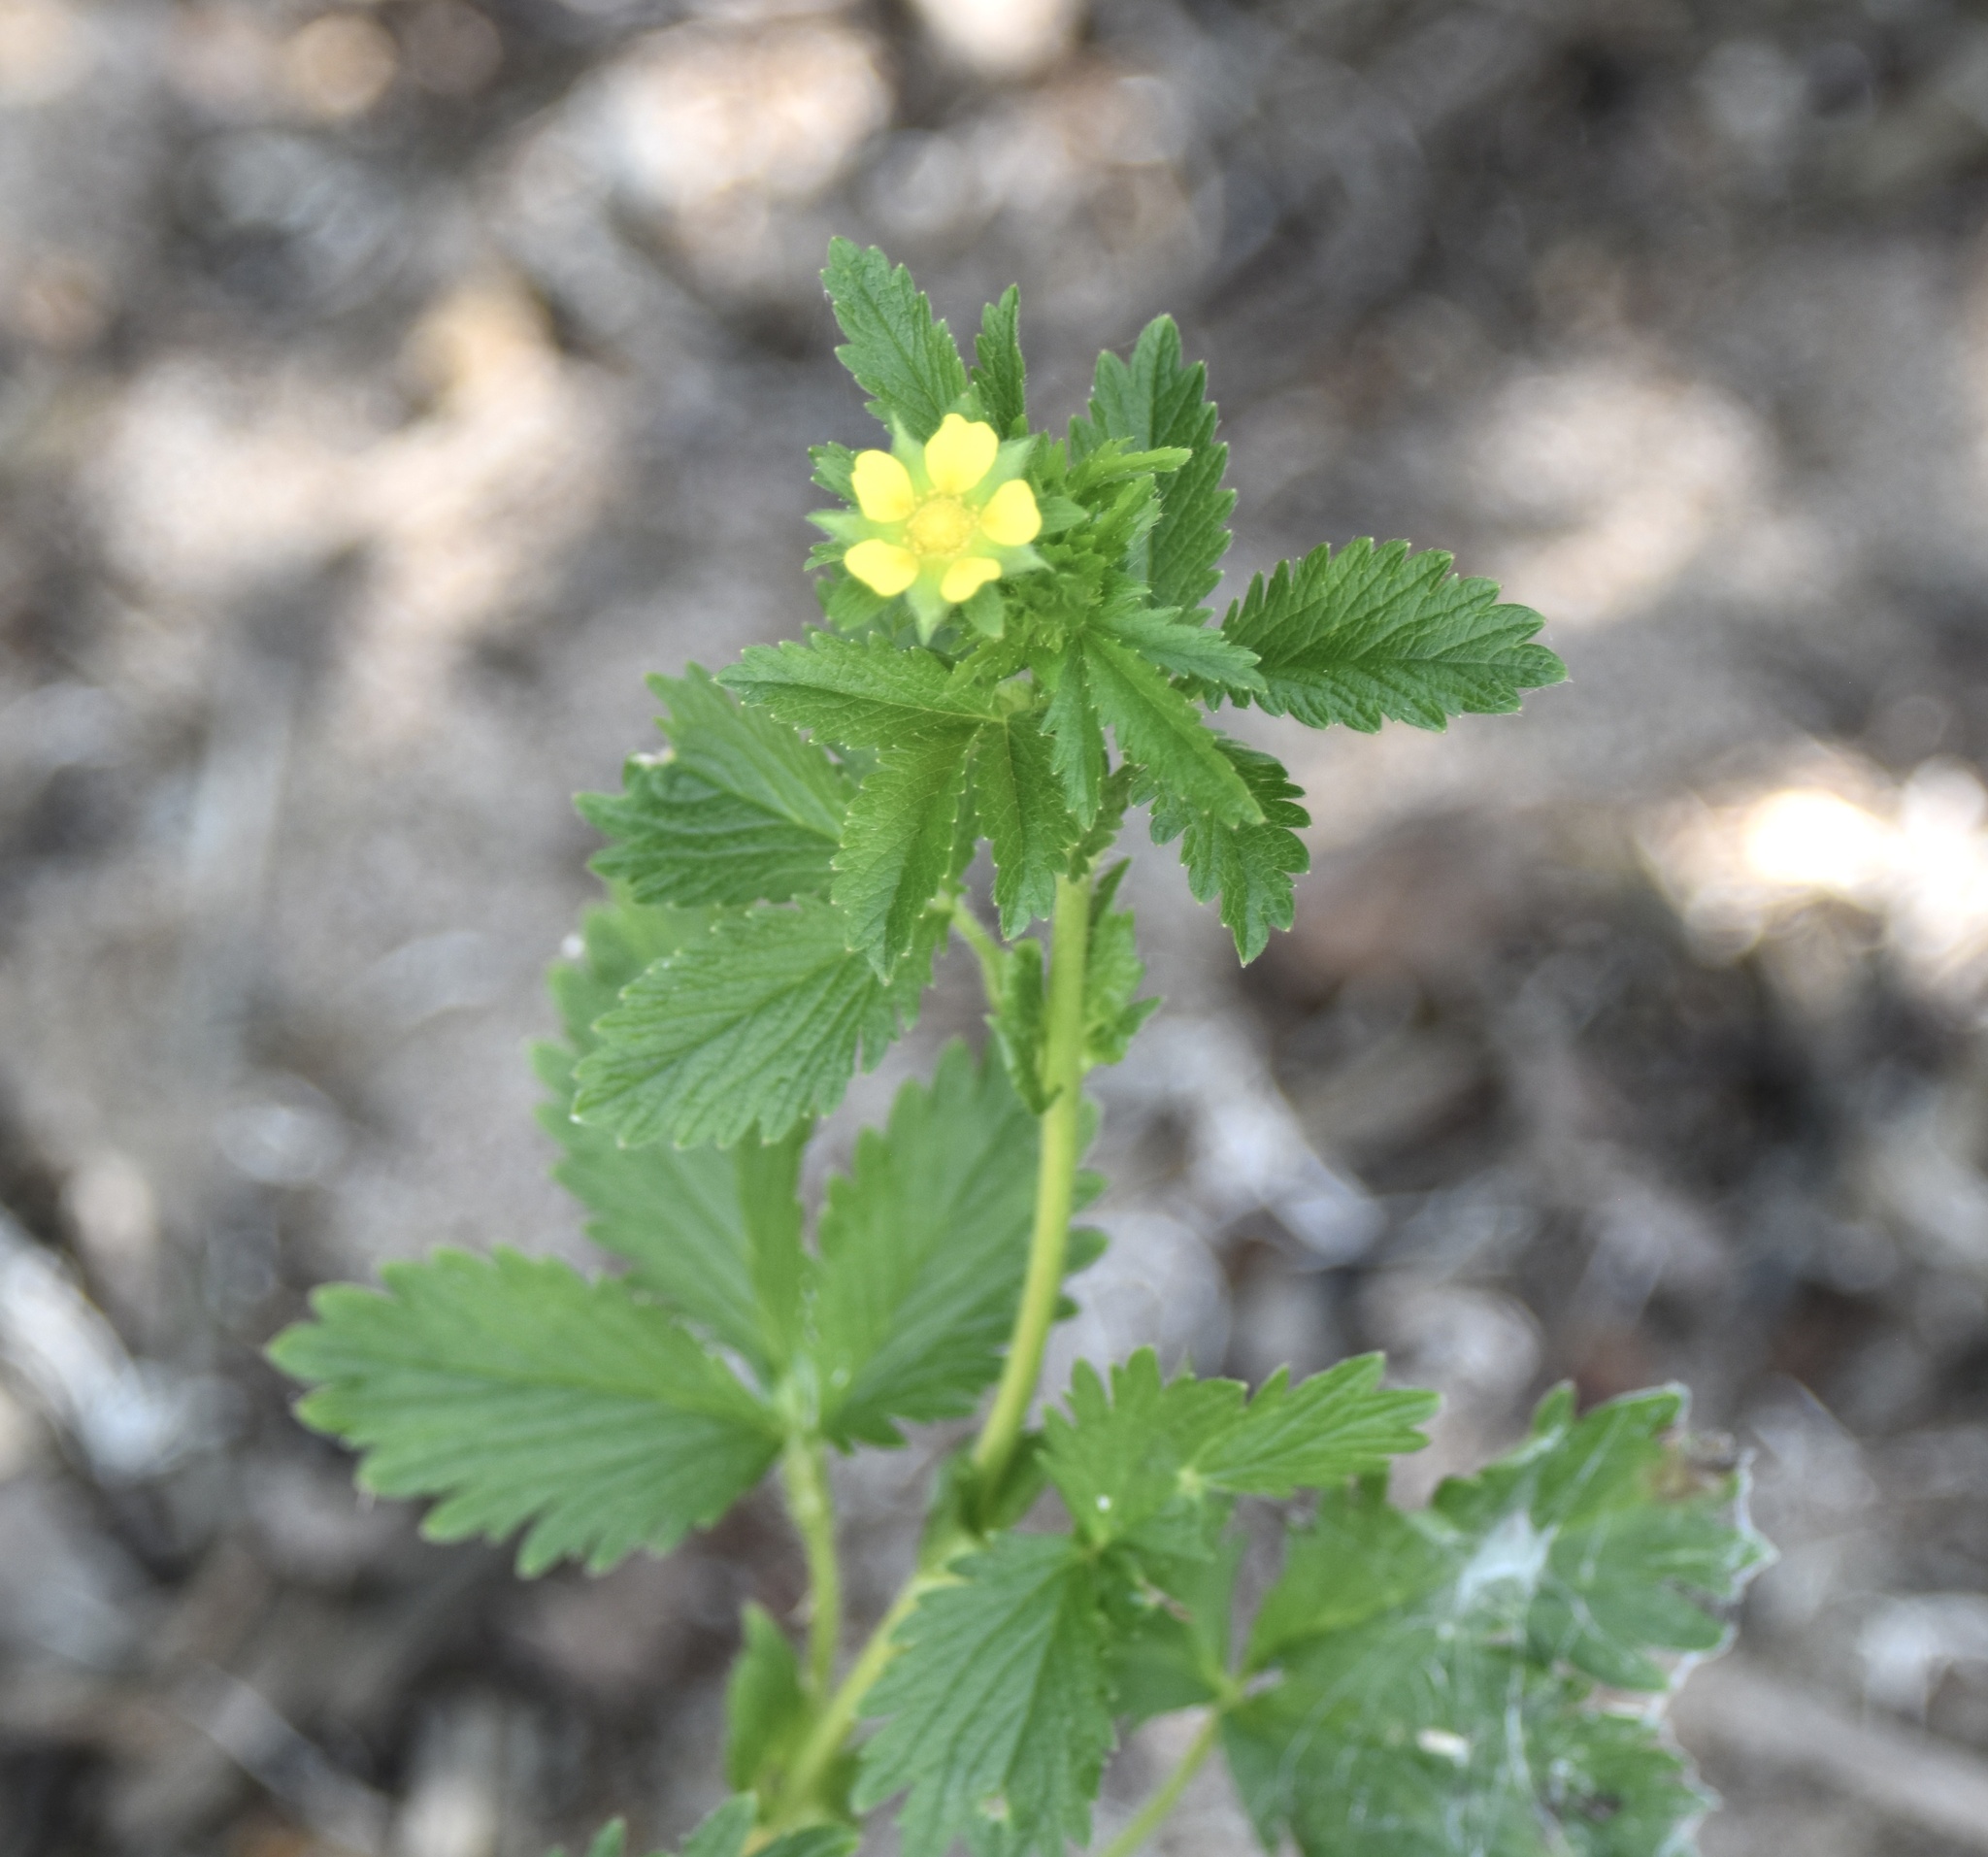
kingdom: Plantae
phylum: Tracheophyta
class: Magnoliopsida
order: Rosales
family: Rosaceae
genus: Potentilla
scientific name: Potentilla norvegica
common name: Ternate-leaved cinquefoil
